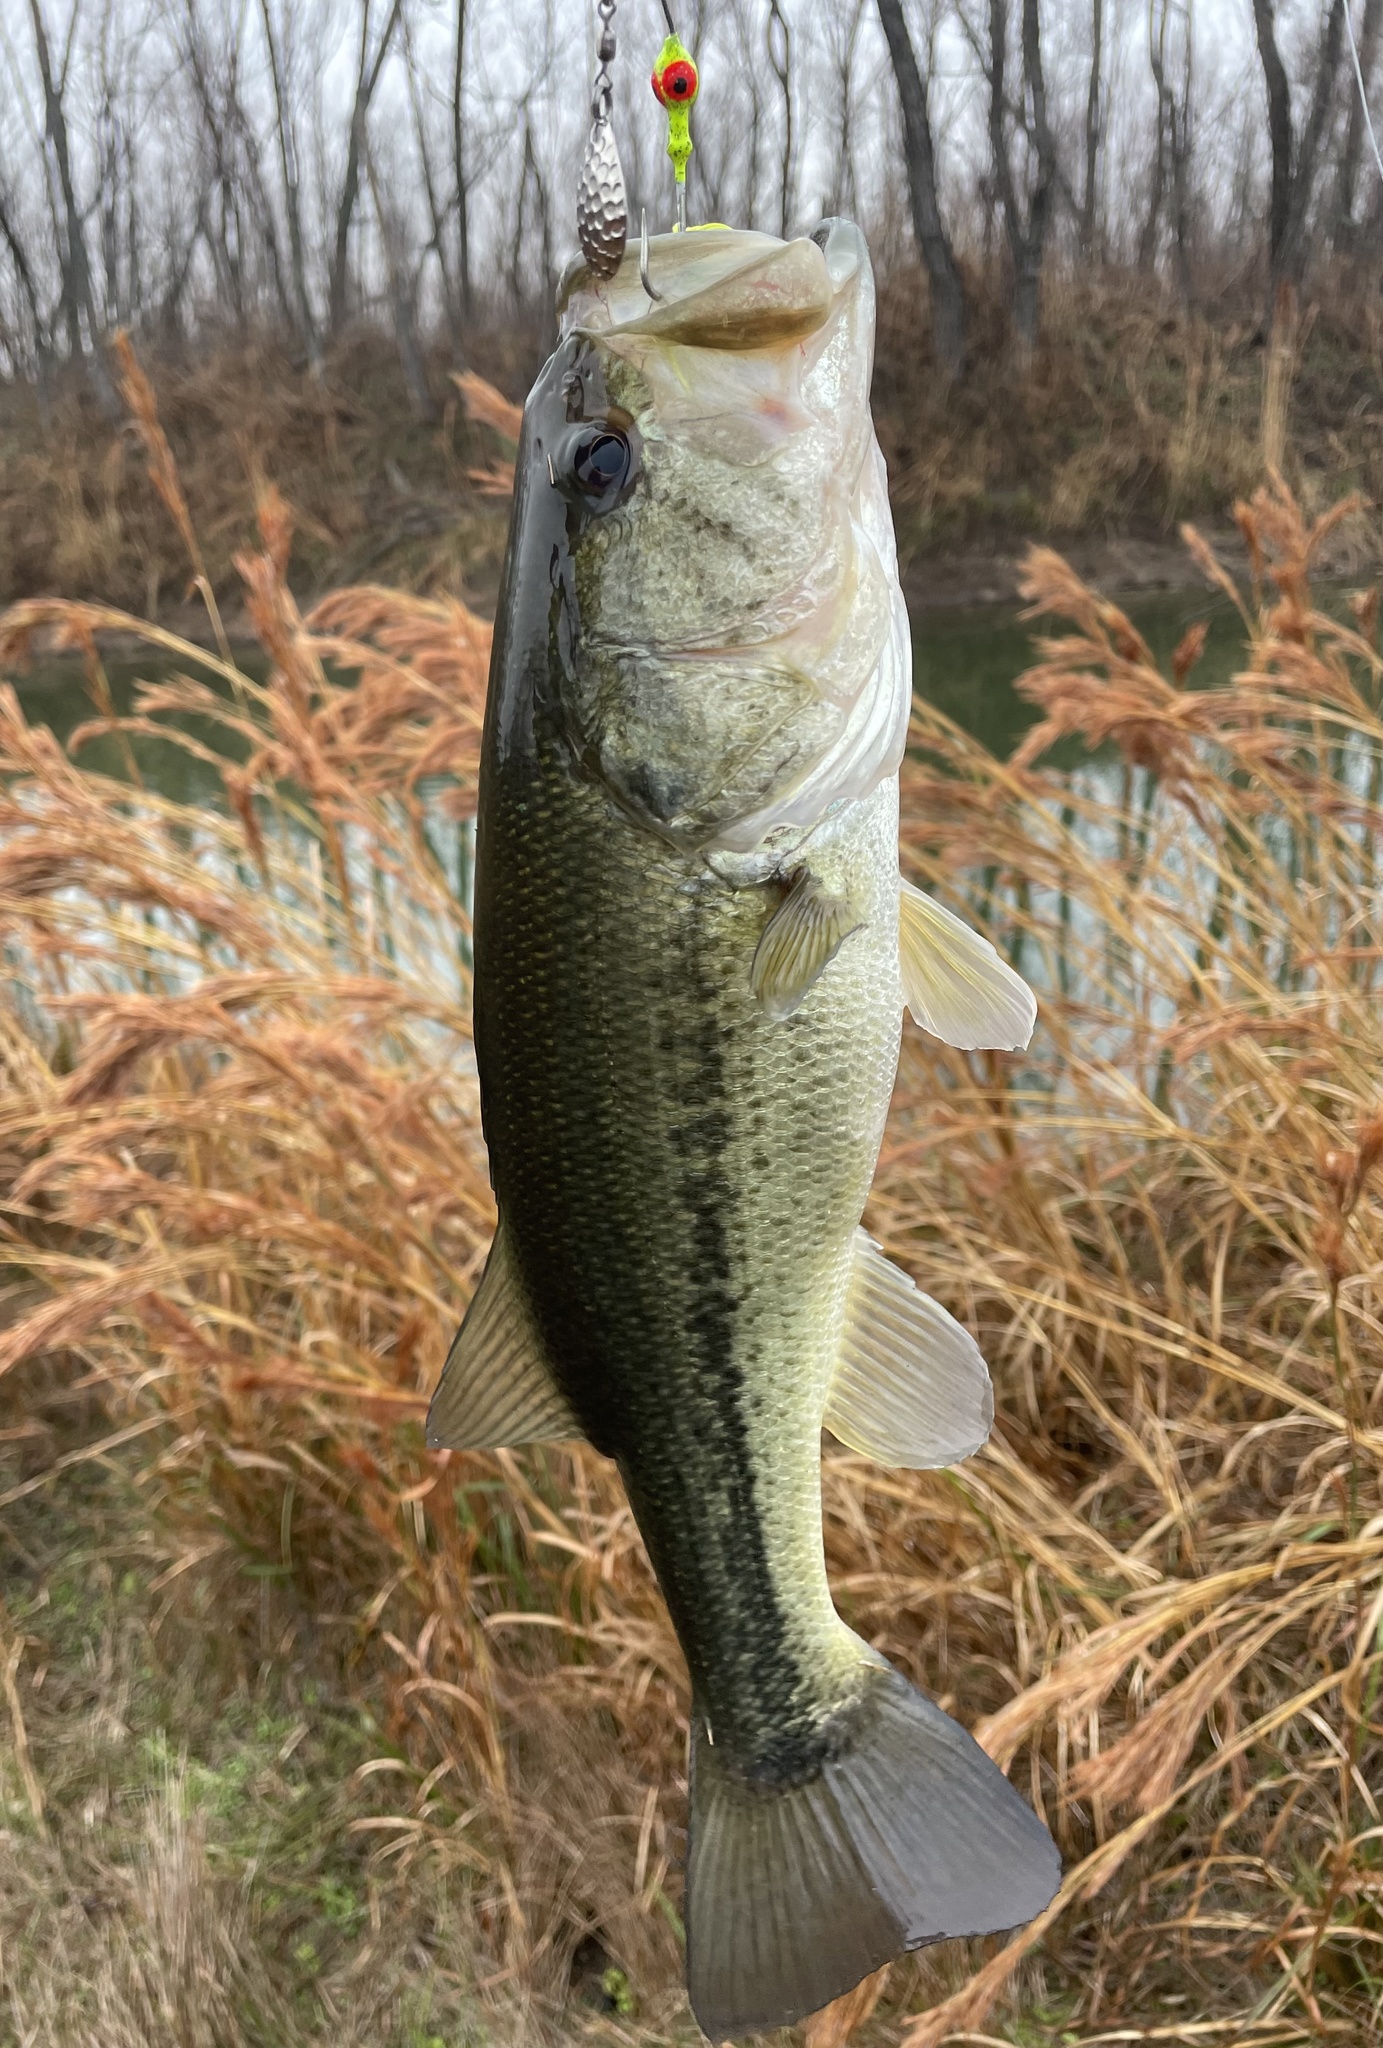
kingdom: Animalia
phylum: Chordata
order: Perciformes
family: Centrarchidae
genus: Micropterus
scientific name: Micropterus
